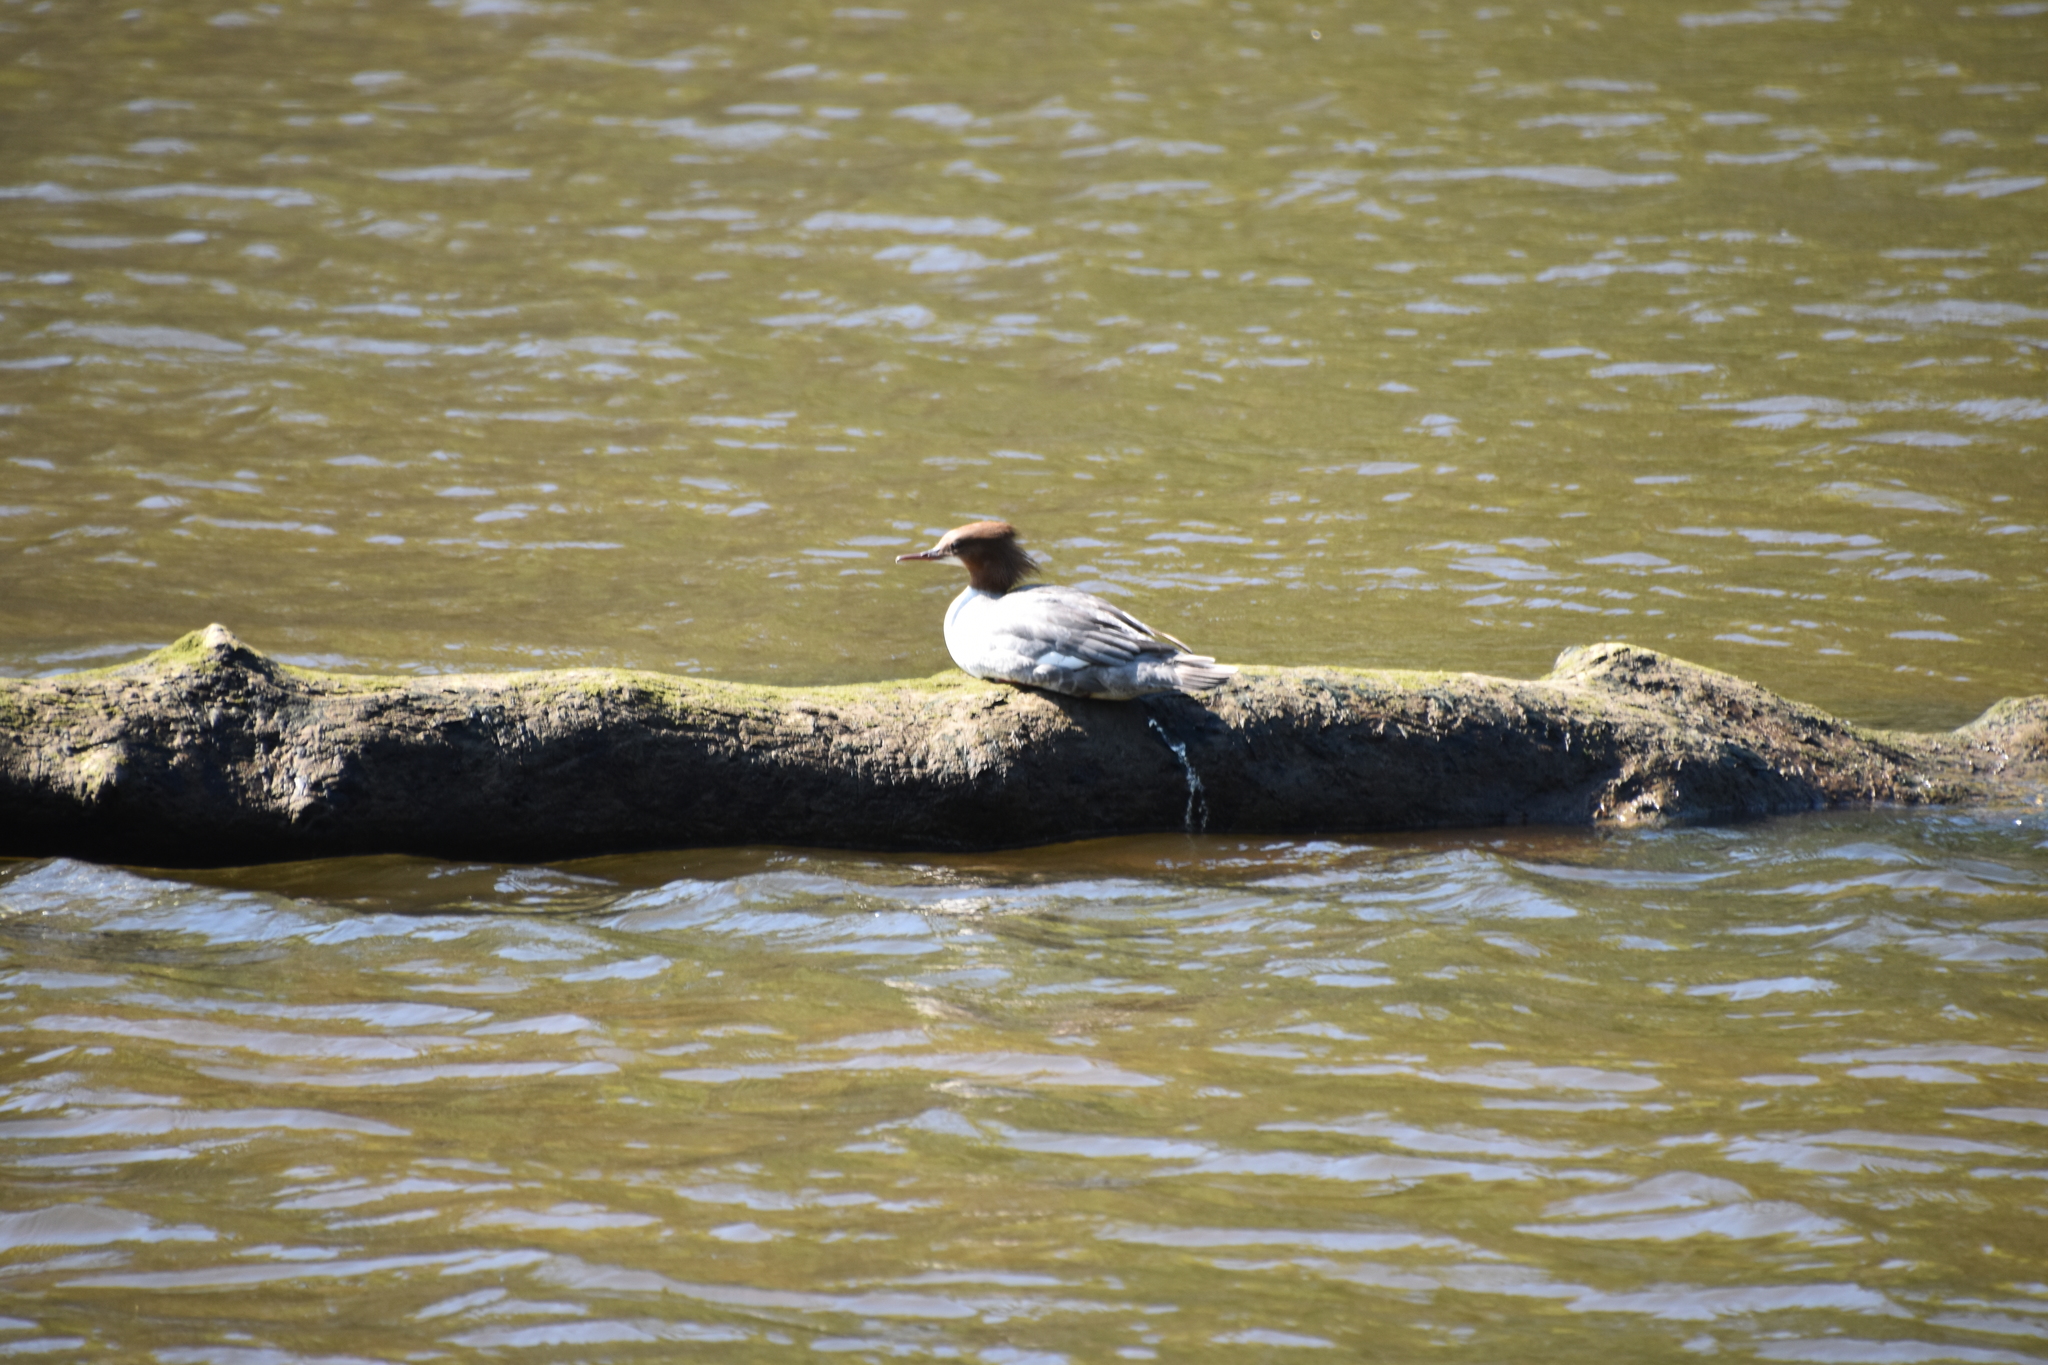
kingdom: Animalia
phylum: Chordata
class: Aves
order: Anseriformes
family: Anatidae
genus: Mergus
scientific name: Mergus merganser
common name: Common merganser
